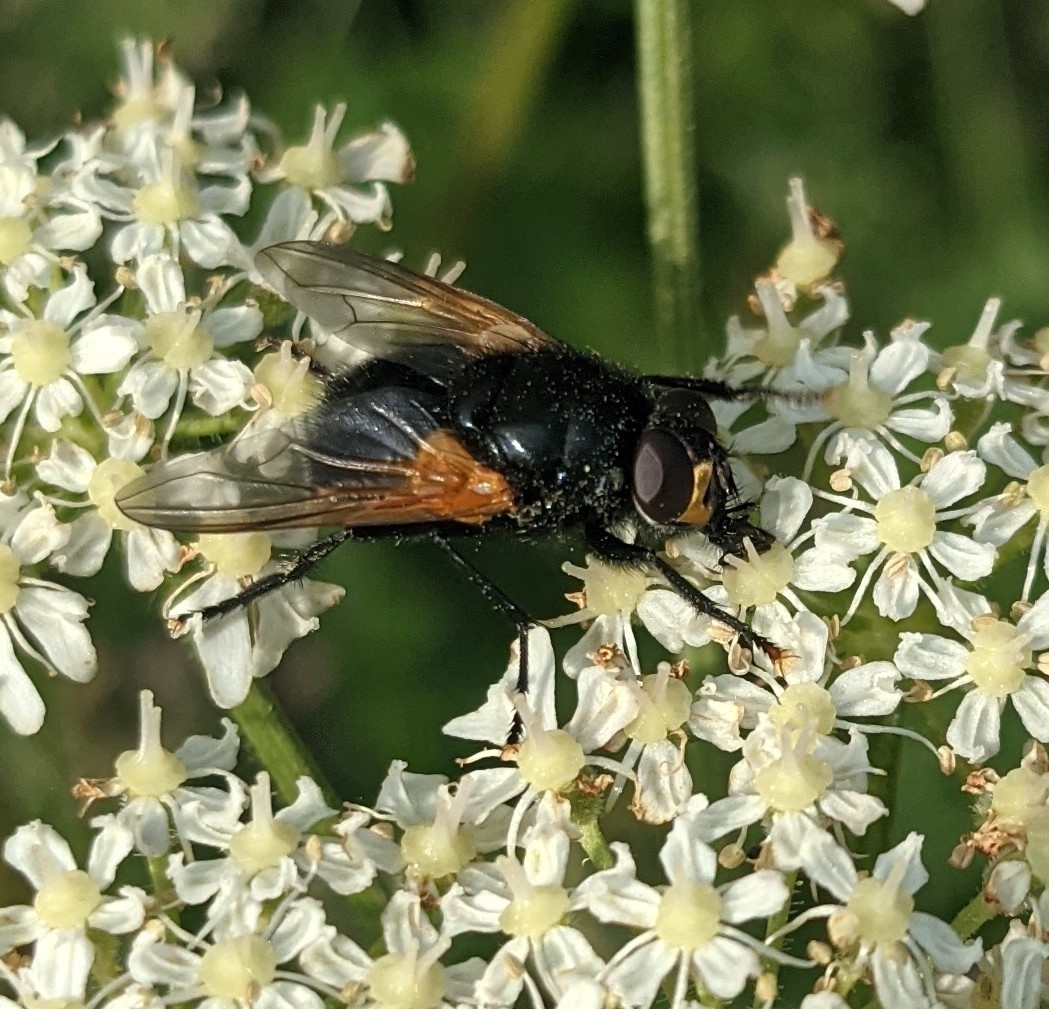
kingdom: Animalia
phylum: Arthropoda
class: Insecta
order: Diptera
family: Muscidae
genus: Mesembrina
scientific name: Mesembrina meridiana
